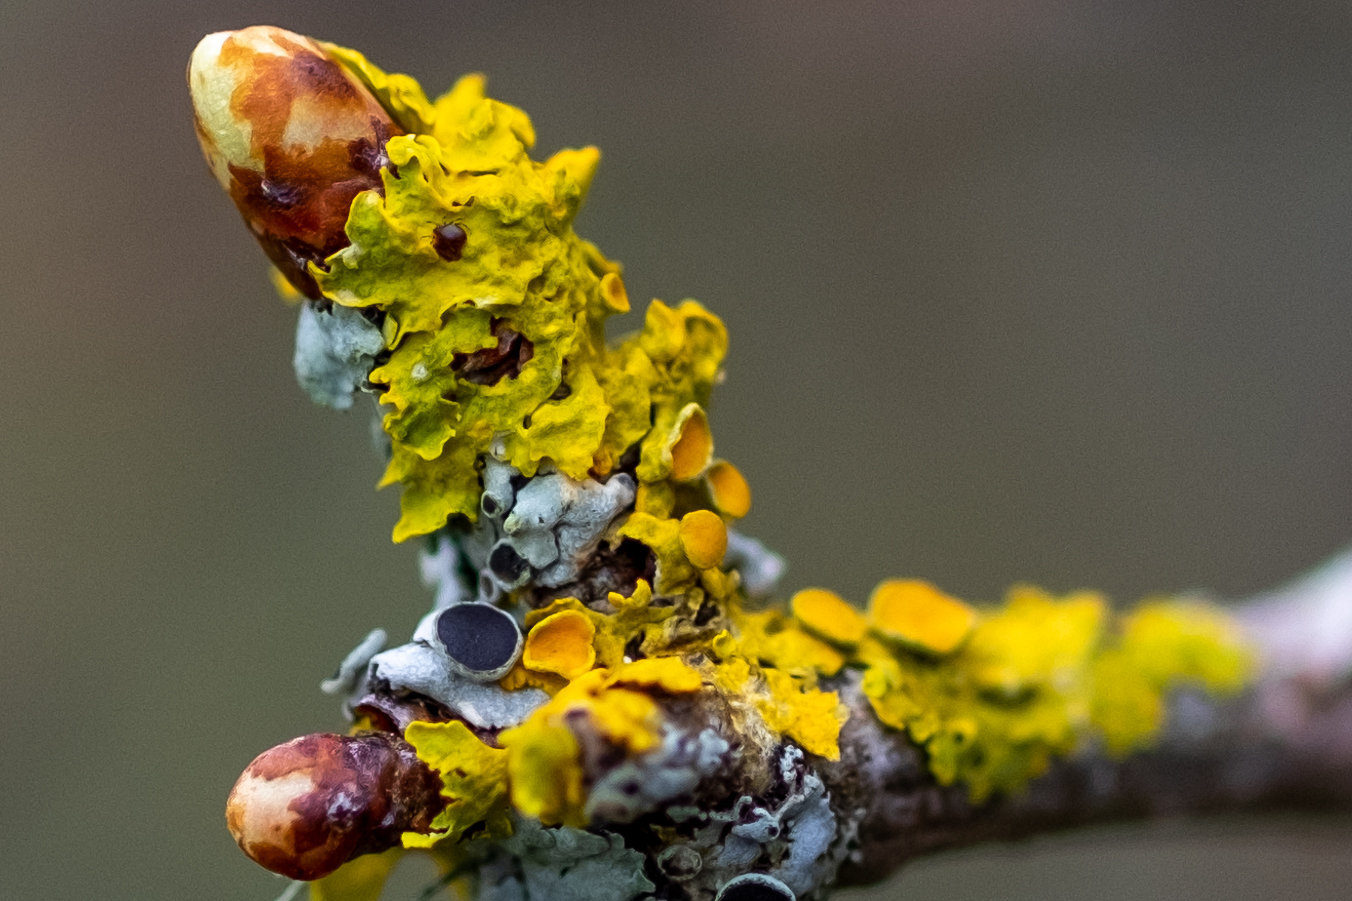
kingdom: Fungi
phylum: Ascomycota
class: Lecanoromycetes
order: Teloschistales
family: Teloschistaceae
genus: Xanthoria
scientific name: Xanthoria parietina
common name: Common orange lichen
